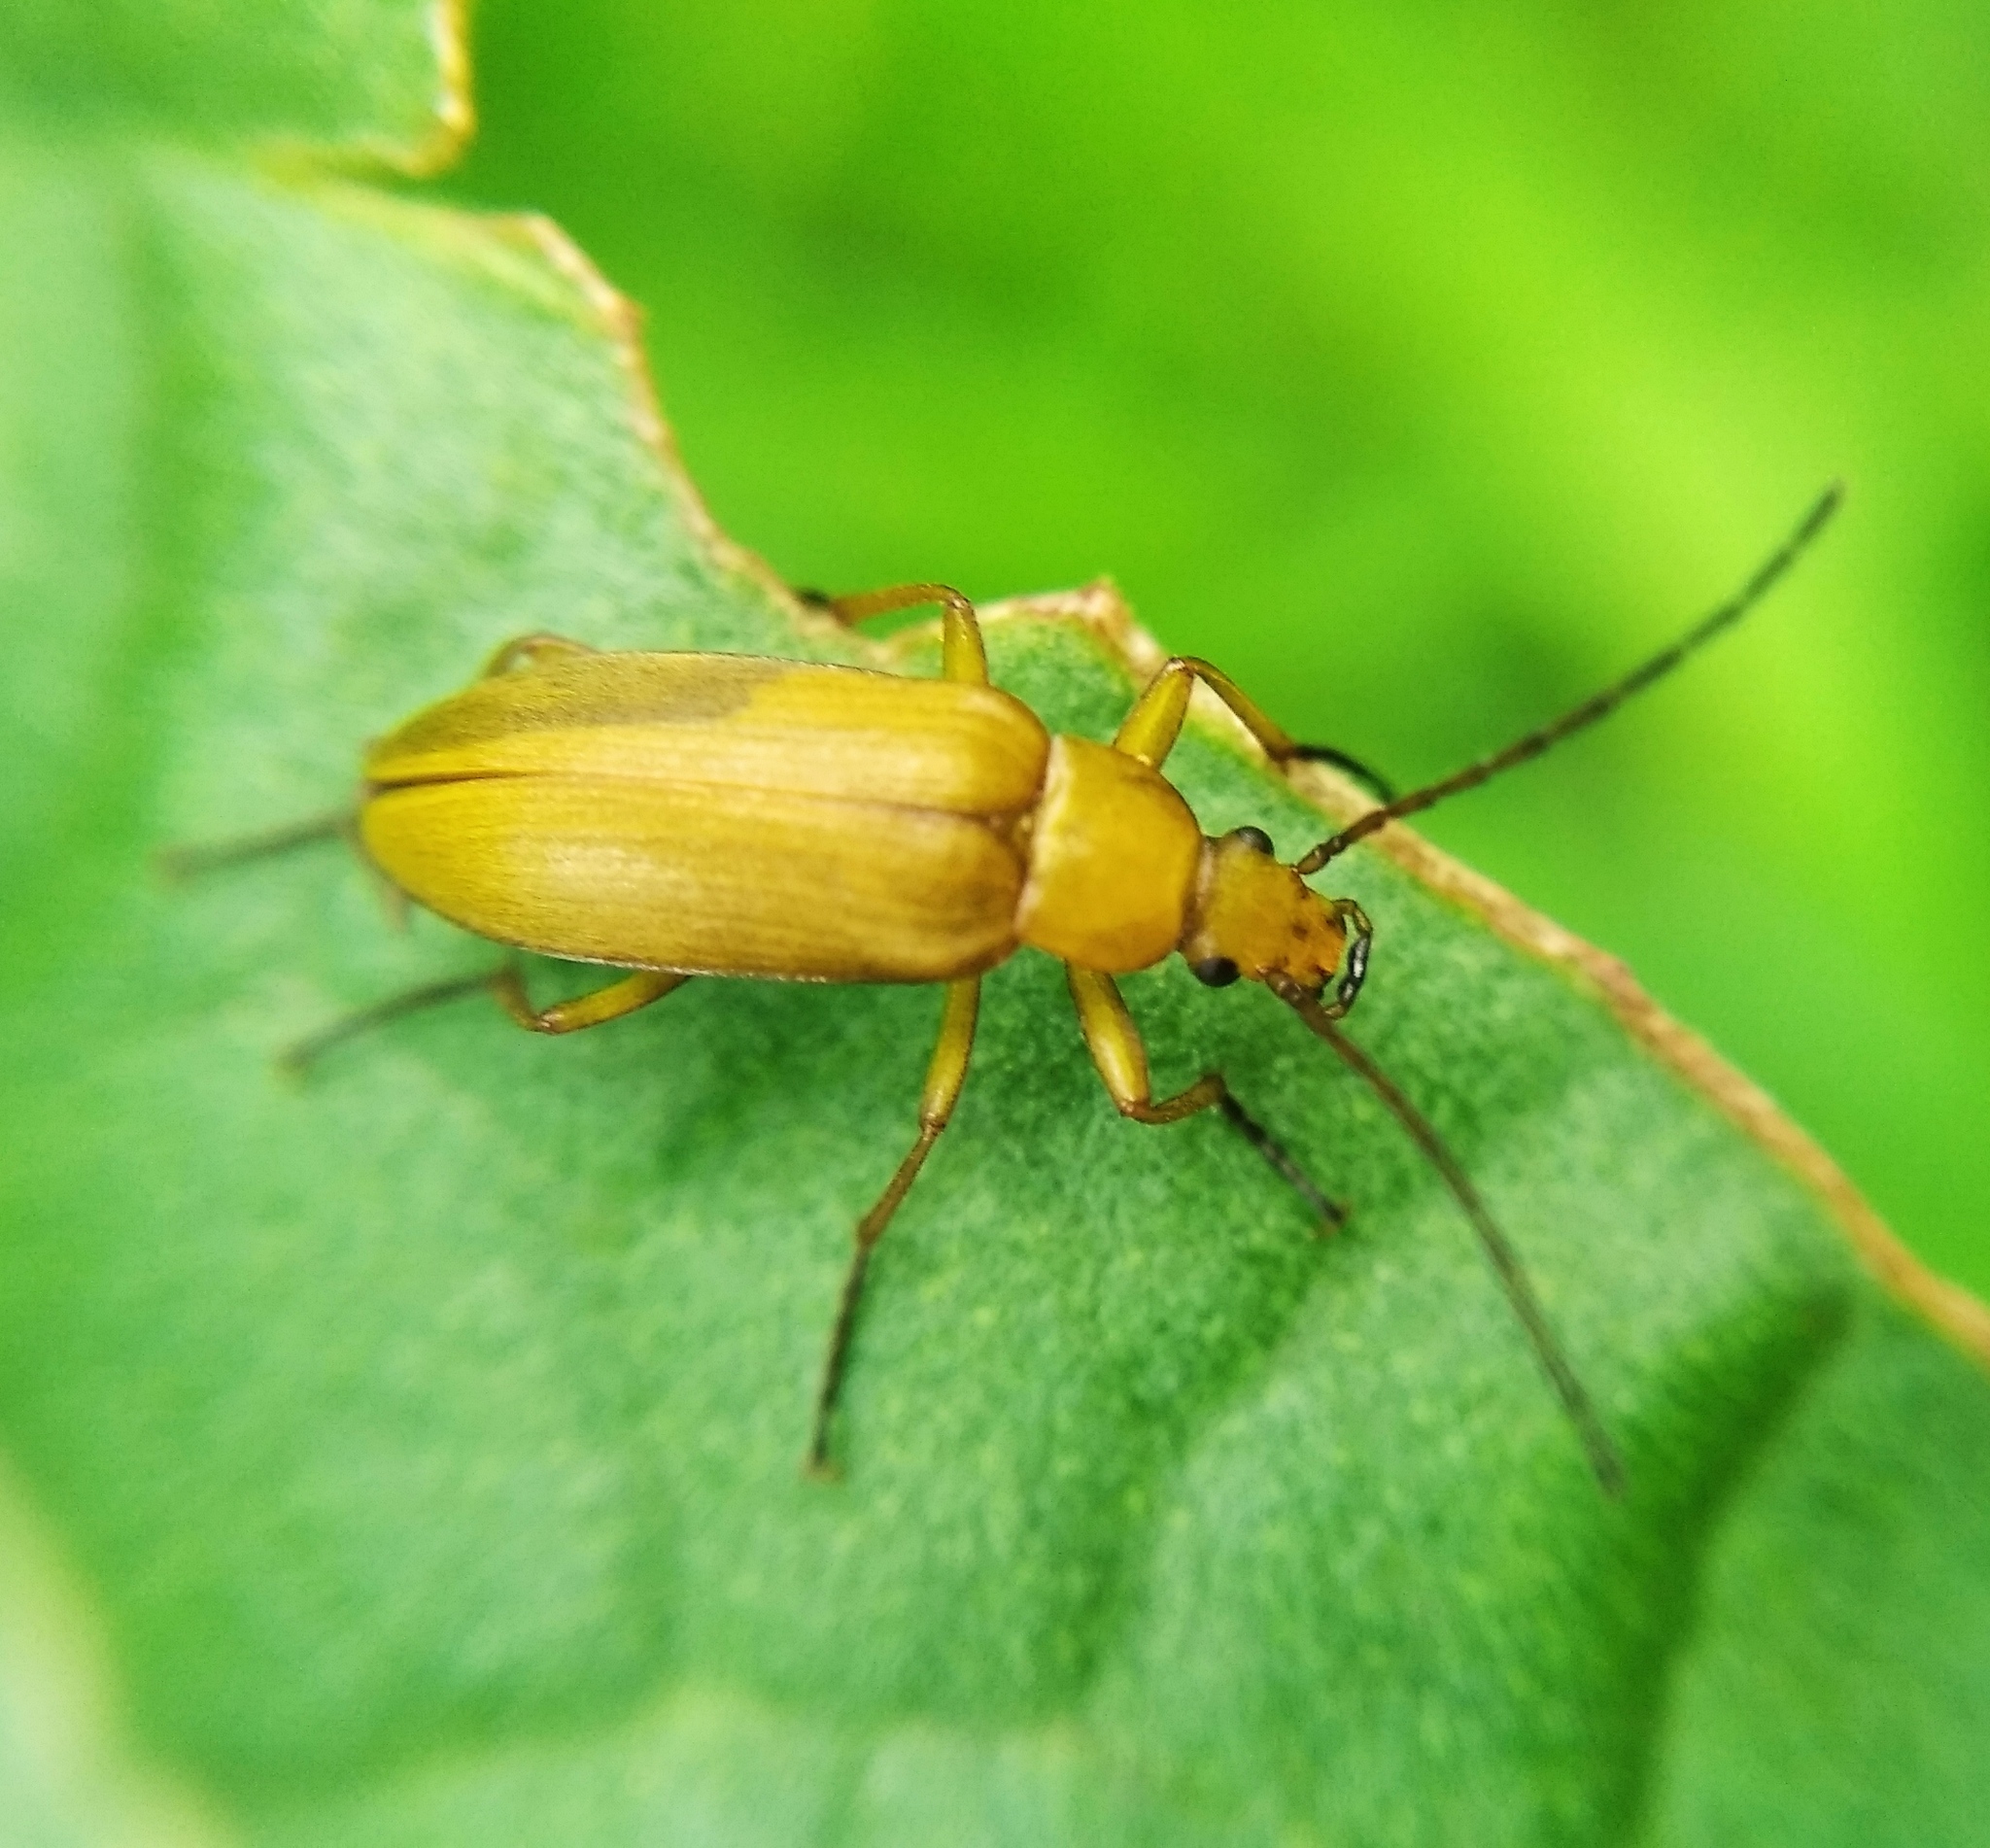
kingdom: Animalia
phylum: Arthropoda
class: Insecta
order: Coleoptera
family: Tenebrionidae
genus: Cteniopus
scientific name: Cteniopus sulphureus
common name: Sulphur beetle
